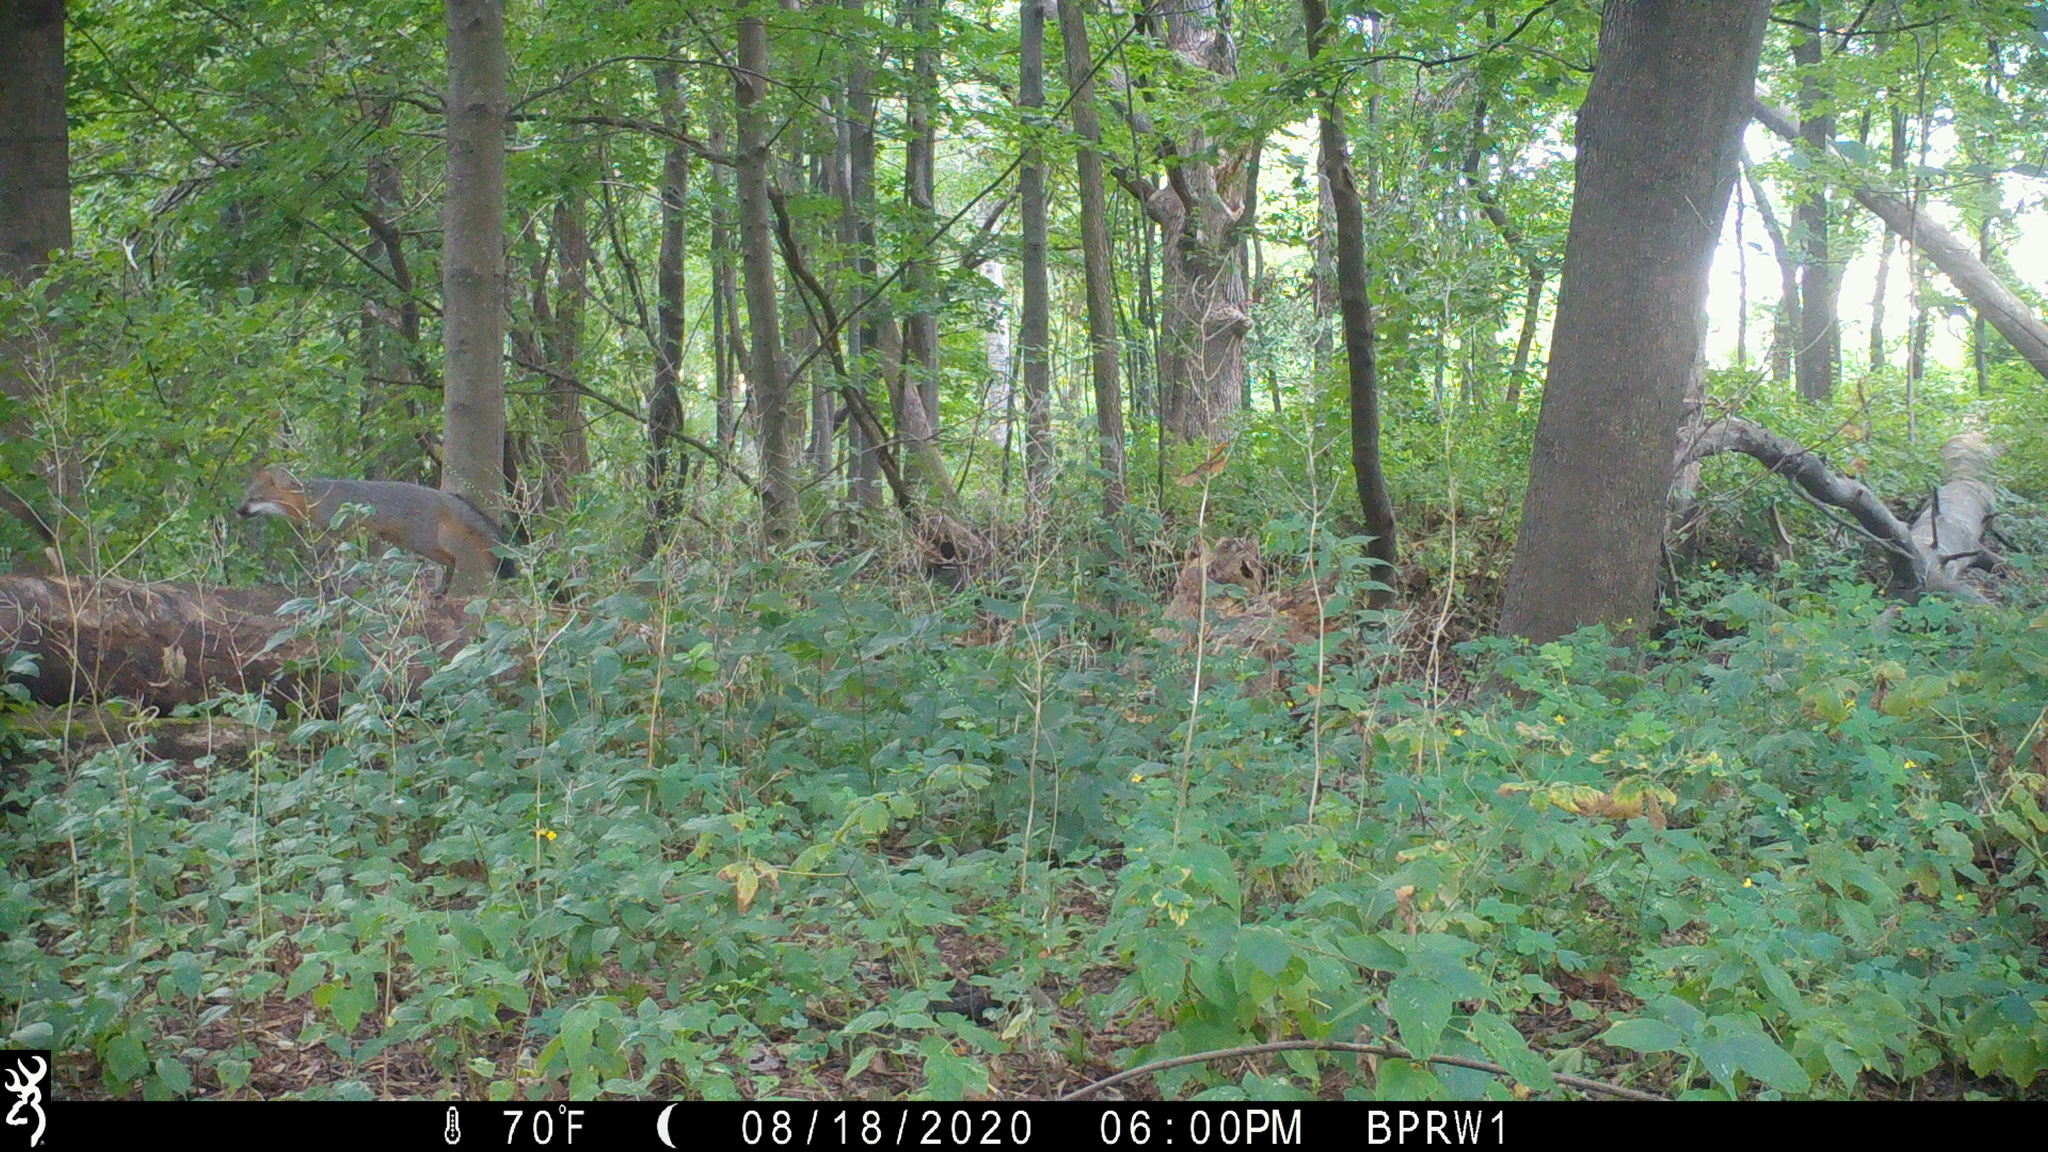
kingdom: Animalia
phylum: Chordata
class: Mammalia
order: Carnivora
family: Canidae
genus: Urocyon
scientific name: Urocyon cinereoargenteus
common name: Gray fox
